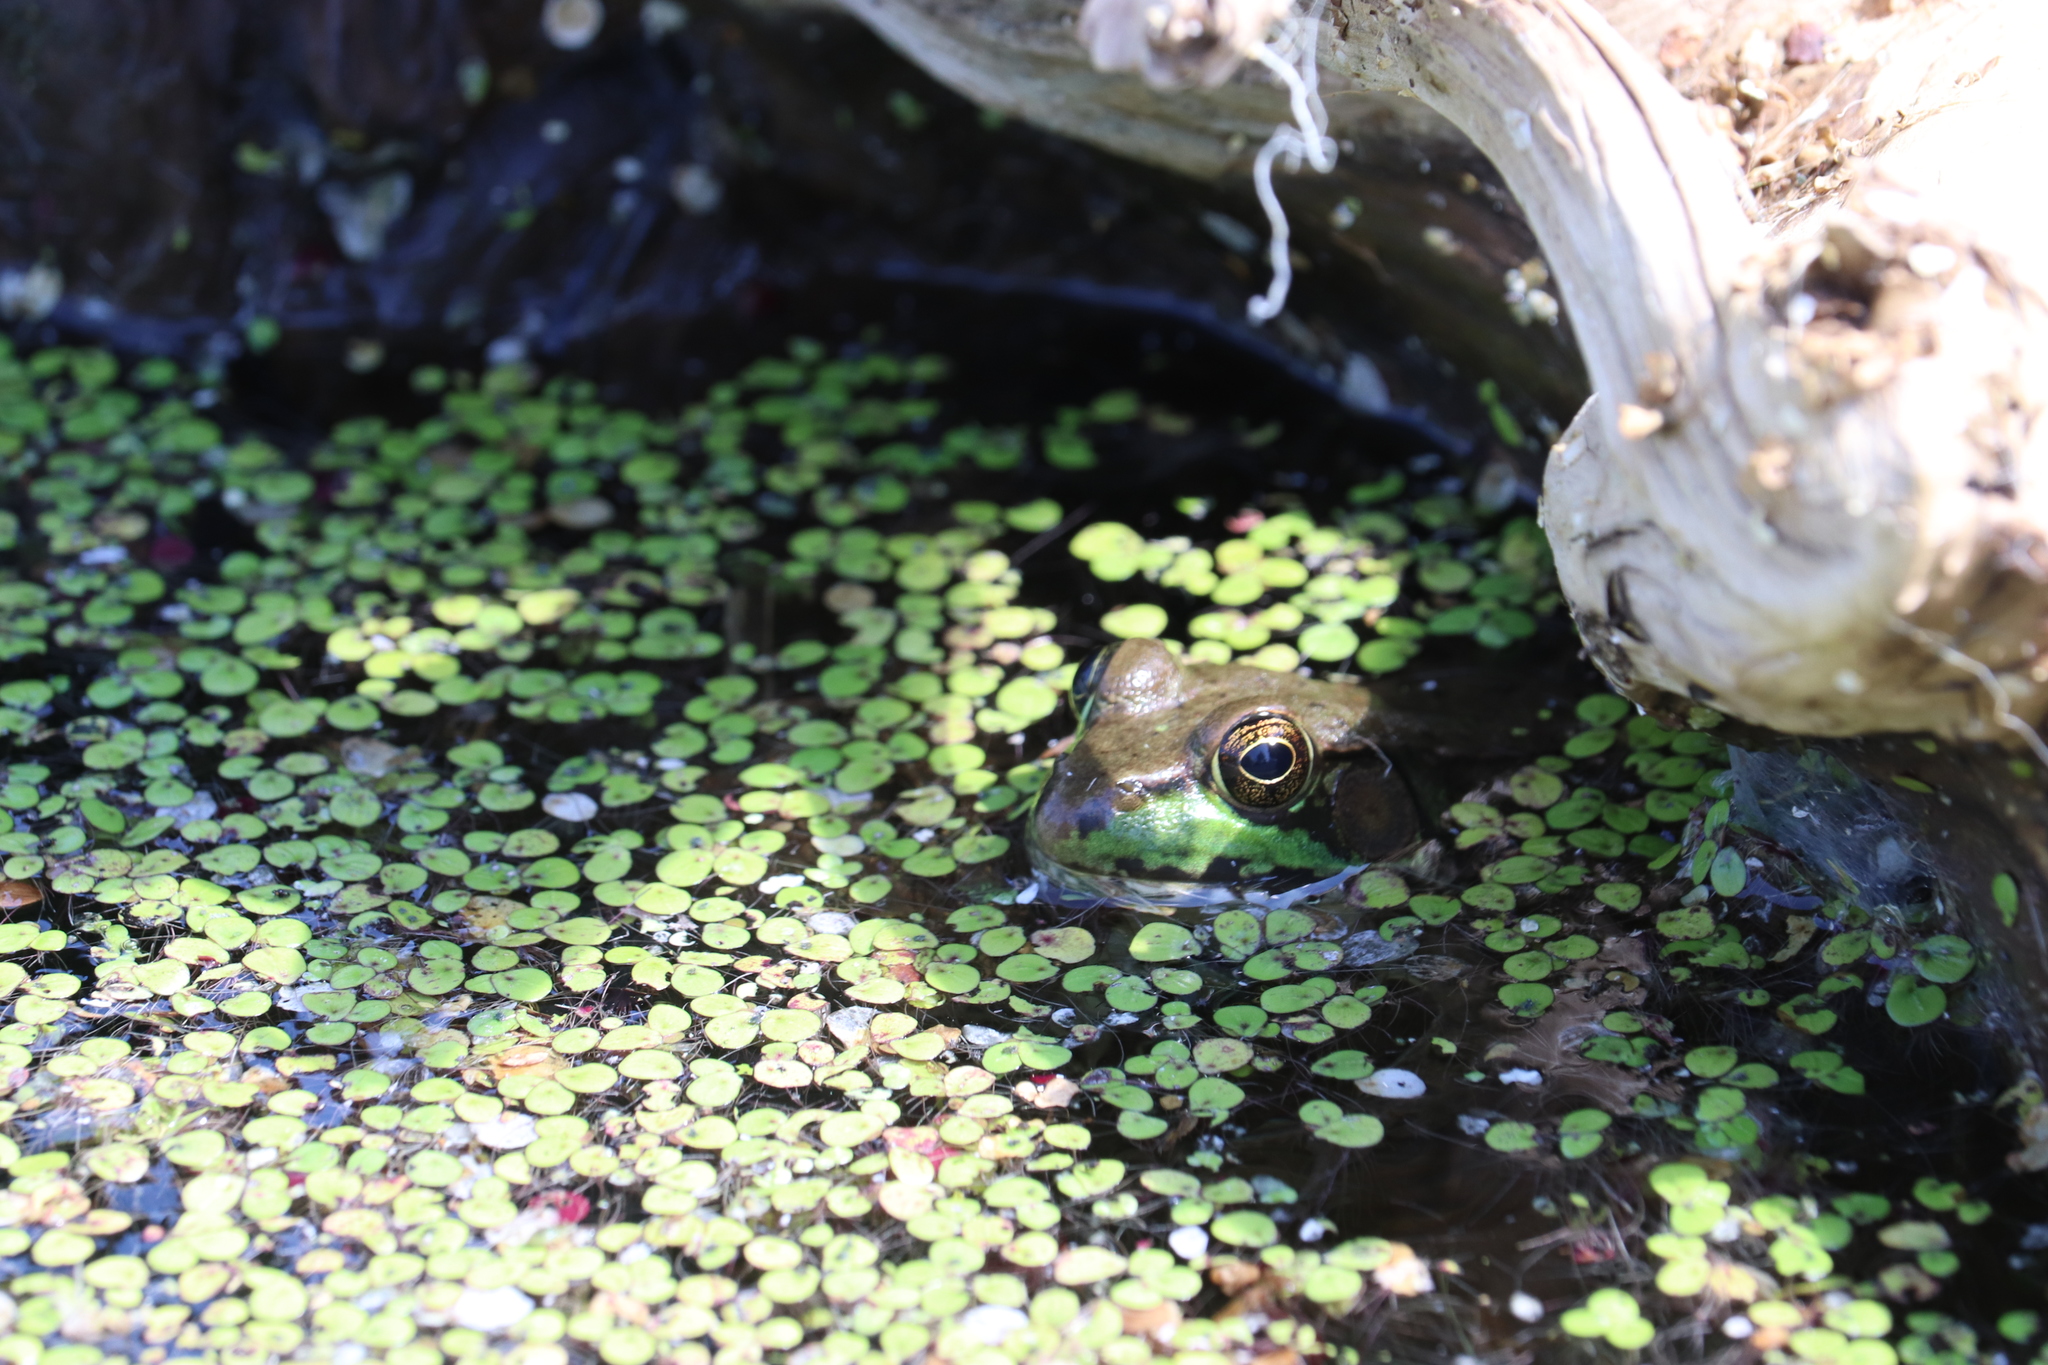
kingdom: Animalia
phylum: Chordata
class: Amphibia
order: Anura
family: Ranidae
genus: Lithobates
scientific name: Lithobates clamitans
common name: Green frog
